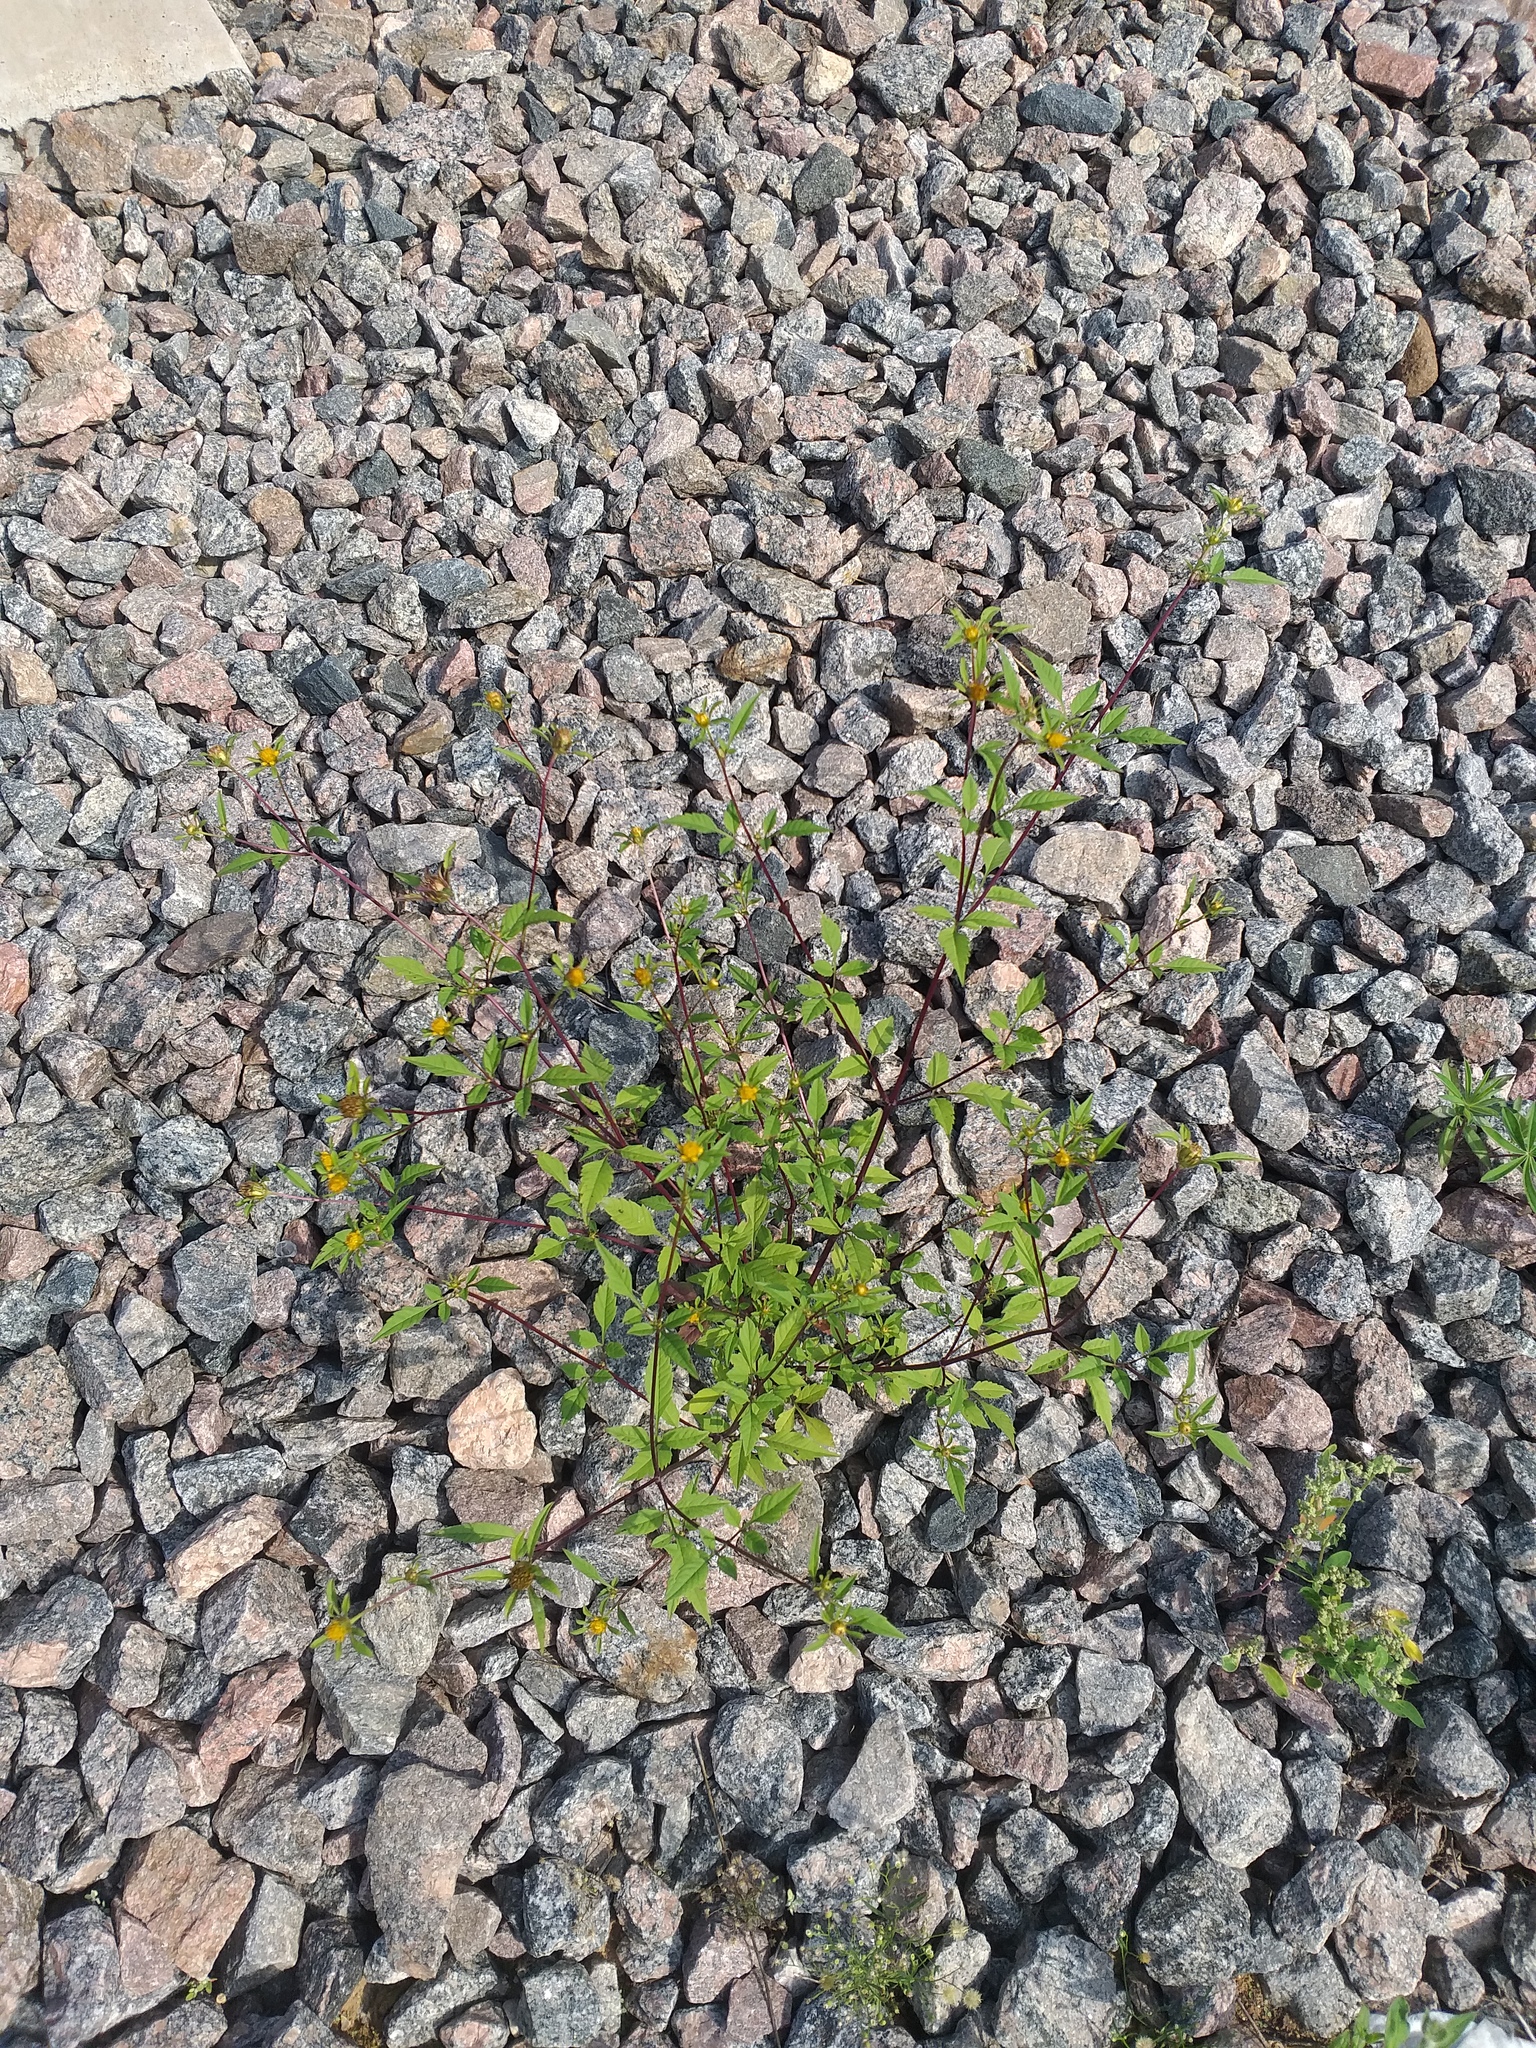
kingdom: Plantae
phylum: Tracheophyta
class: Magnoliopsida
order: Asterales
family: Asteraceae
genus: Bidens
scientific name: Bidens frondosa
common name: Beggarticks
